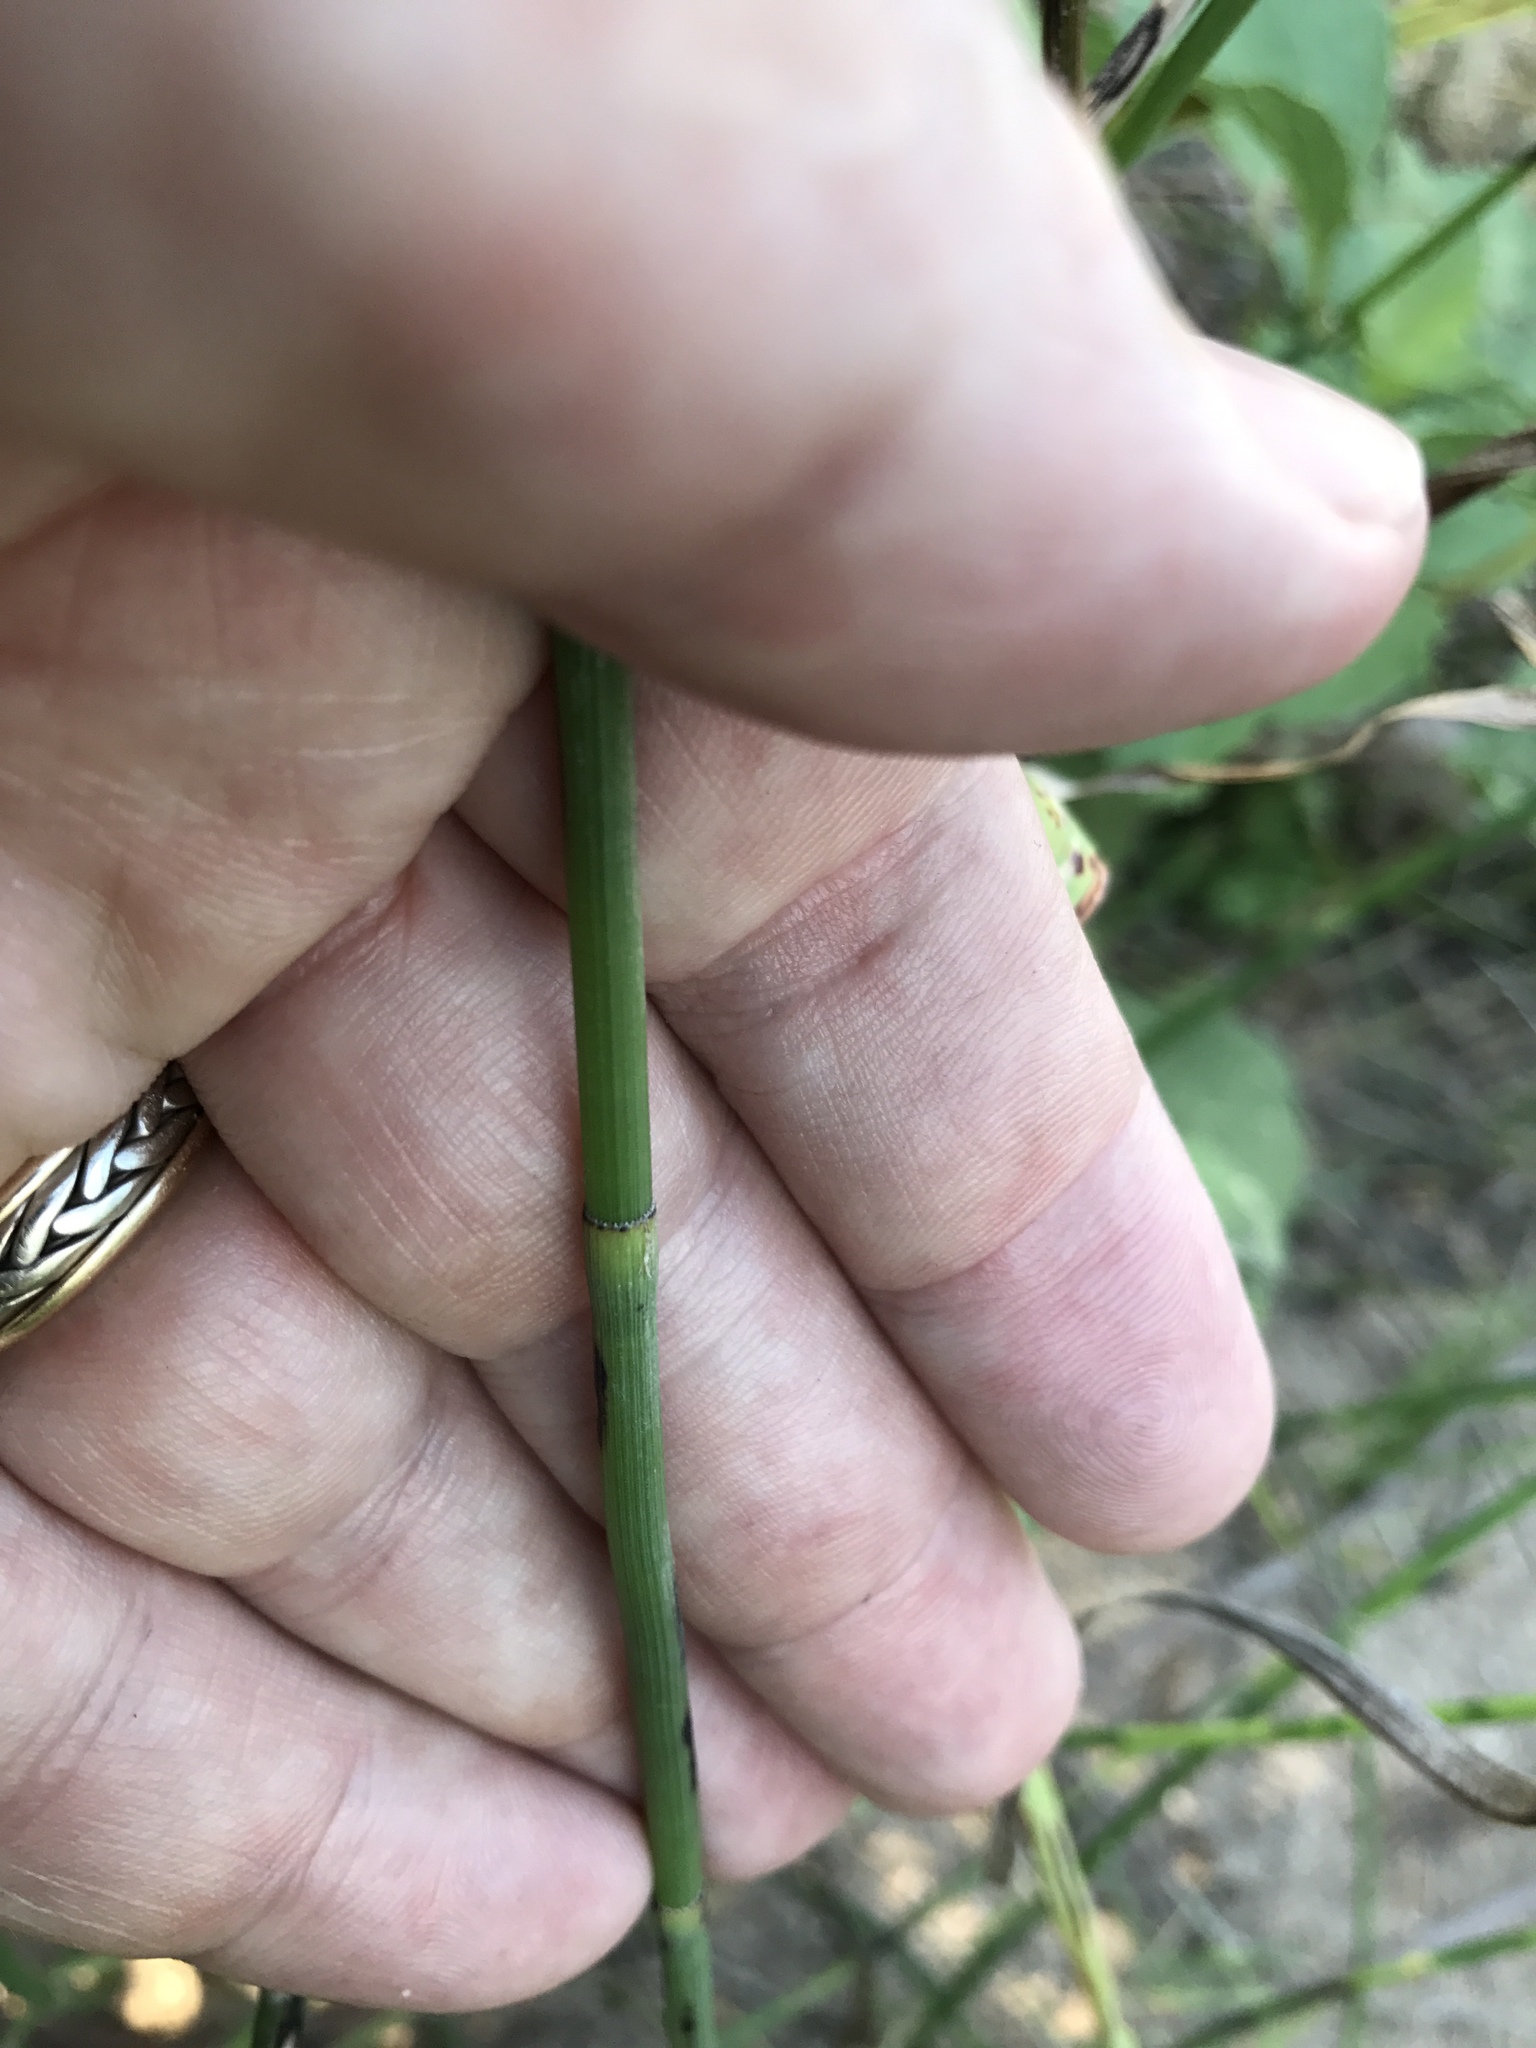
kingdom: Plantae
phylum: Tracheophyta
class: Polypodiopsida
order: Equisetales
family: Equisetaceae
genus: Equisetum
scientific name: Equisetum laevigatum
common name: Smooth scouring-rush
